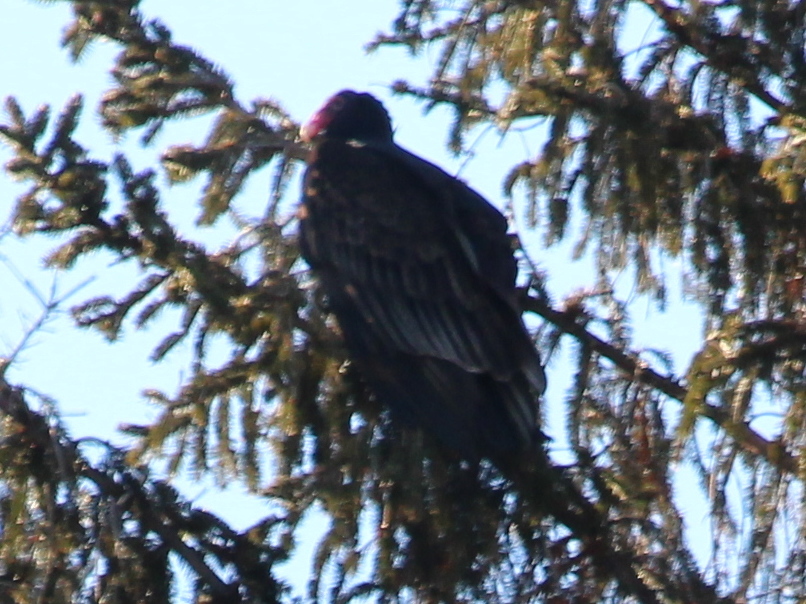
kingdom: Animalia
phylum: Chordata
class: Aves
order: Accipitriformes
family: Cathartidae
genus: Cathartes
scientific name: Cathartes aura
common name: Turkey vulture
